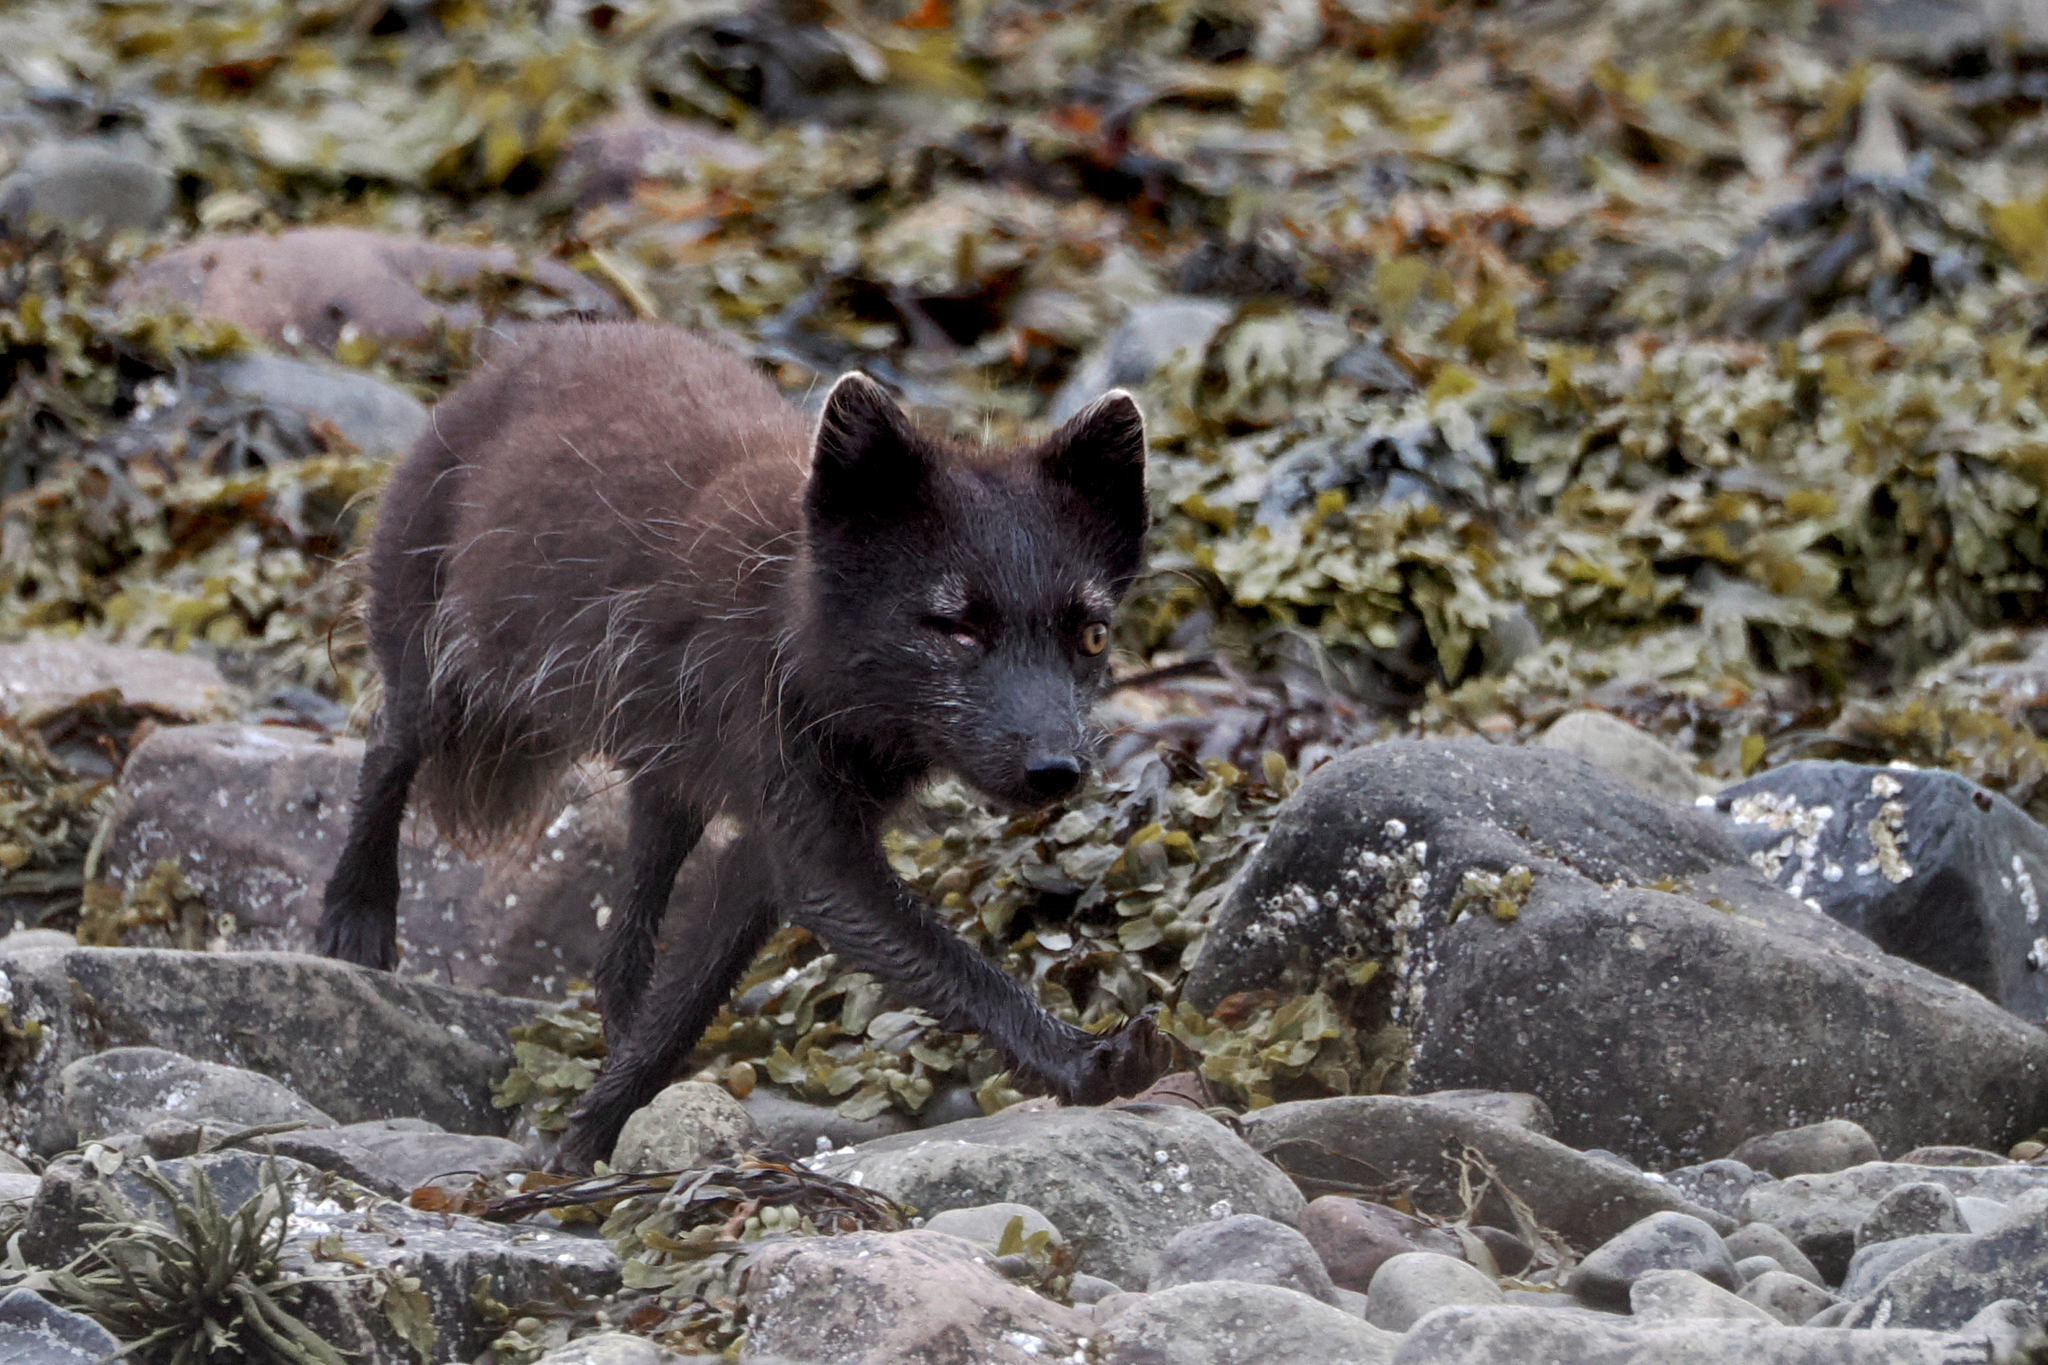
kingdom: Animalia
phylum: Chordata
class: Mammalia
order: Carnivora
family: Canidae
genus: Vulpes
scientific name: Vulpes lagopus
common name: Arctic fox
